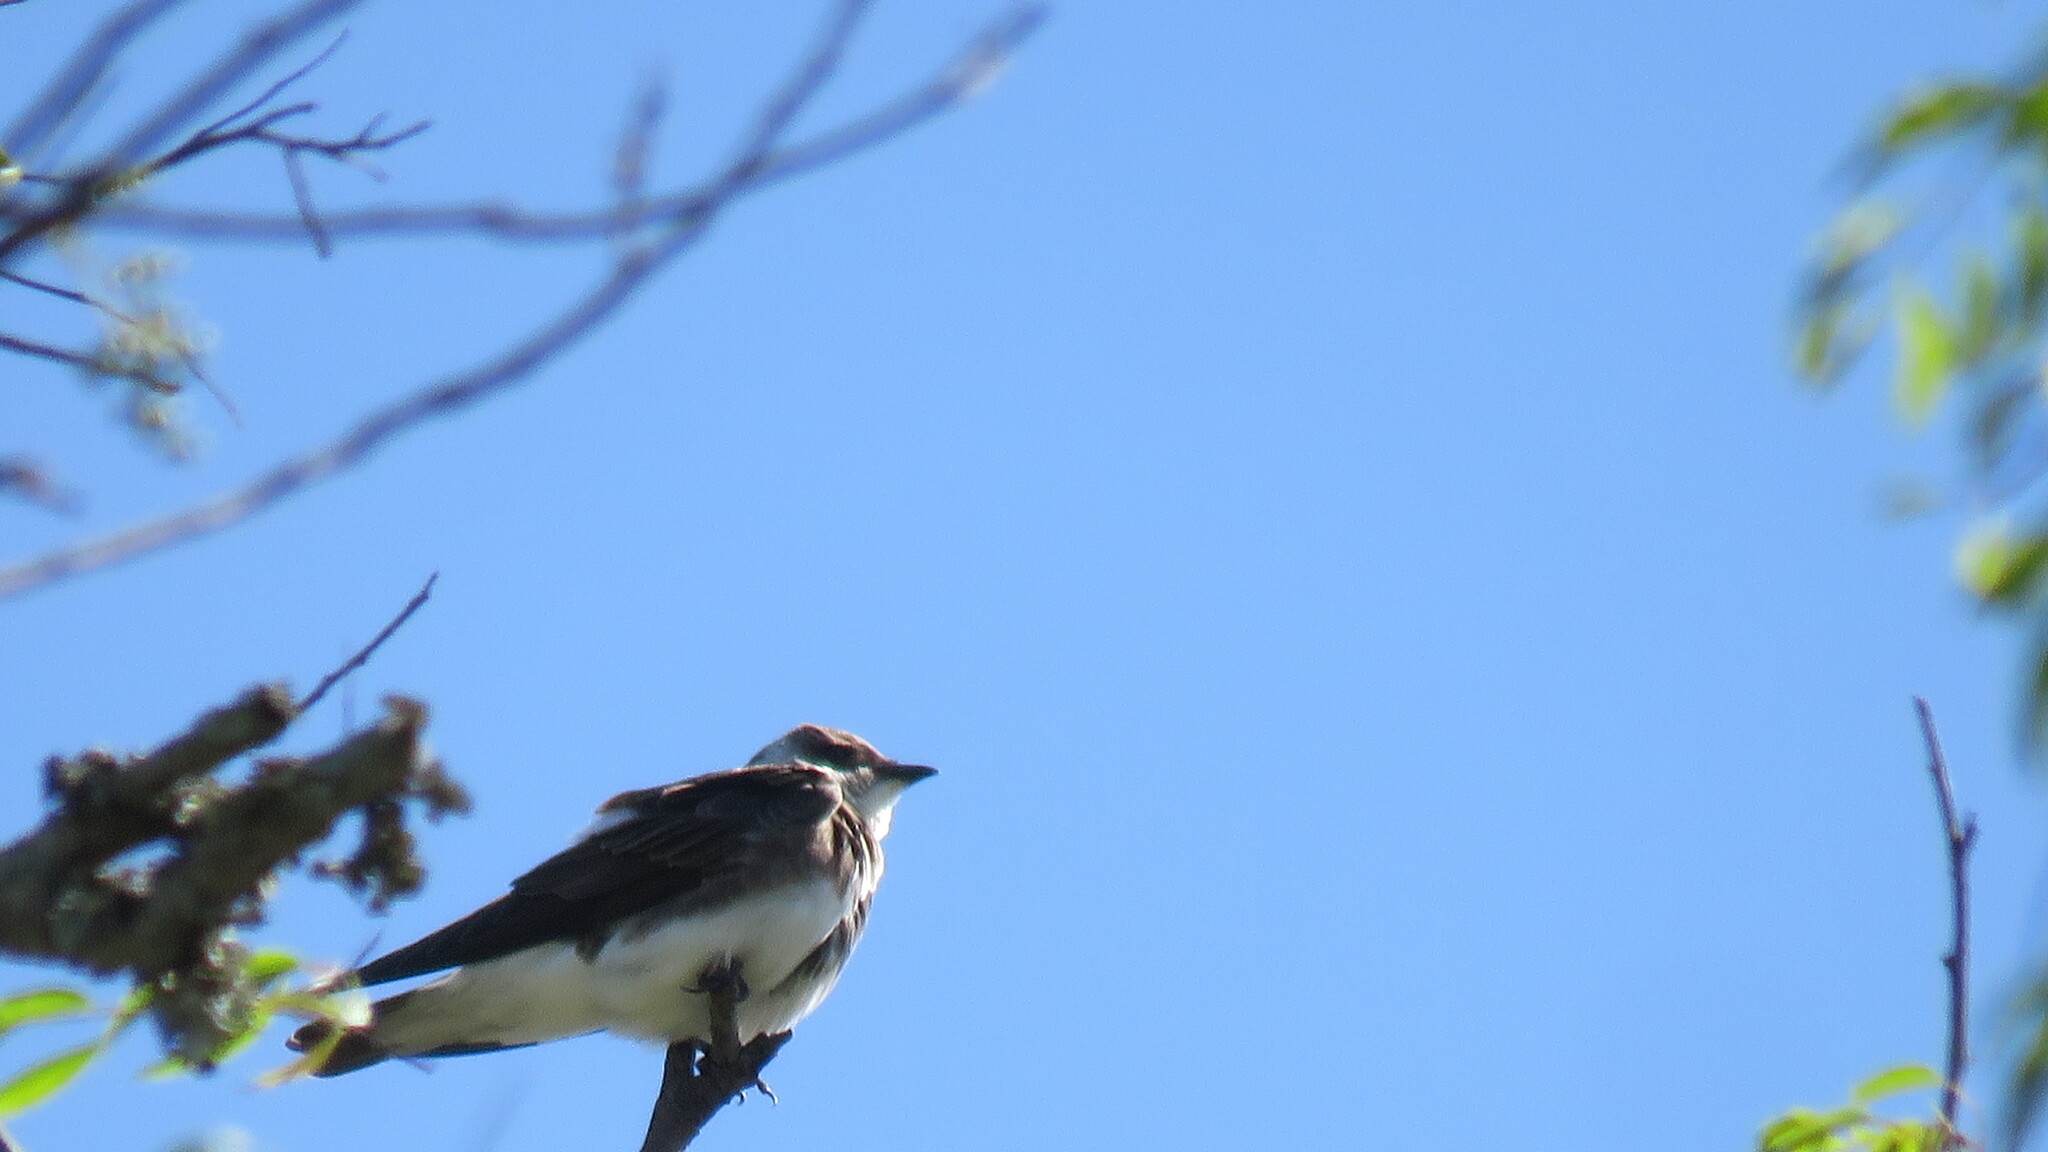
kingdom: Animalia
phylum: Chordata
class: Aves
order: Passeriformes
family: Hirundinidae
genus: Progne
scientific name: Progne tapera
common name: Brown-chested martin
